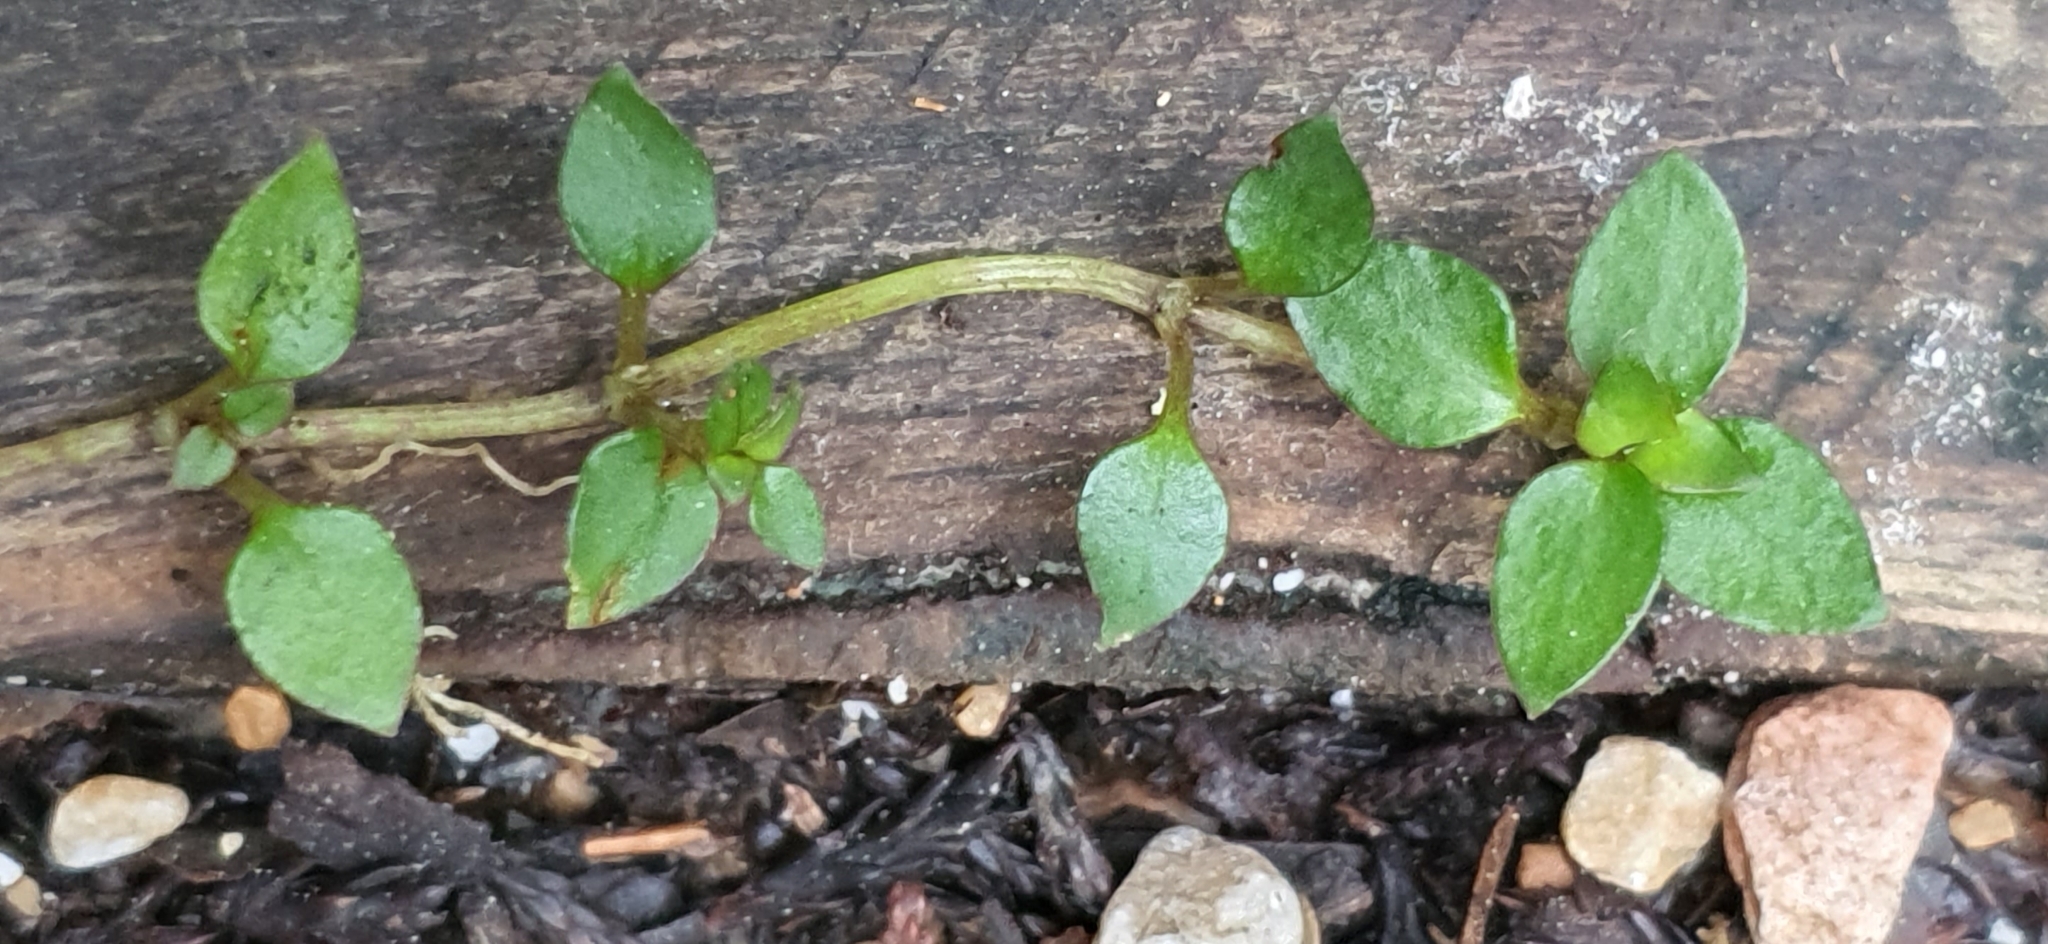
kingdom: Plantae
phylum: Tracheophyta
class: Magnoliopsida
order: Gentianales
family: Rubiaceae
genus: Nertera
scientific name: Nertera granadensis
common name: Beadplant
